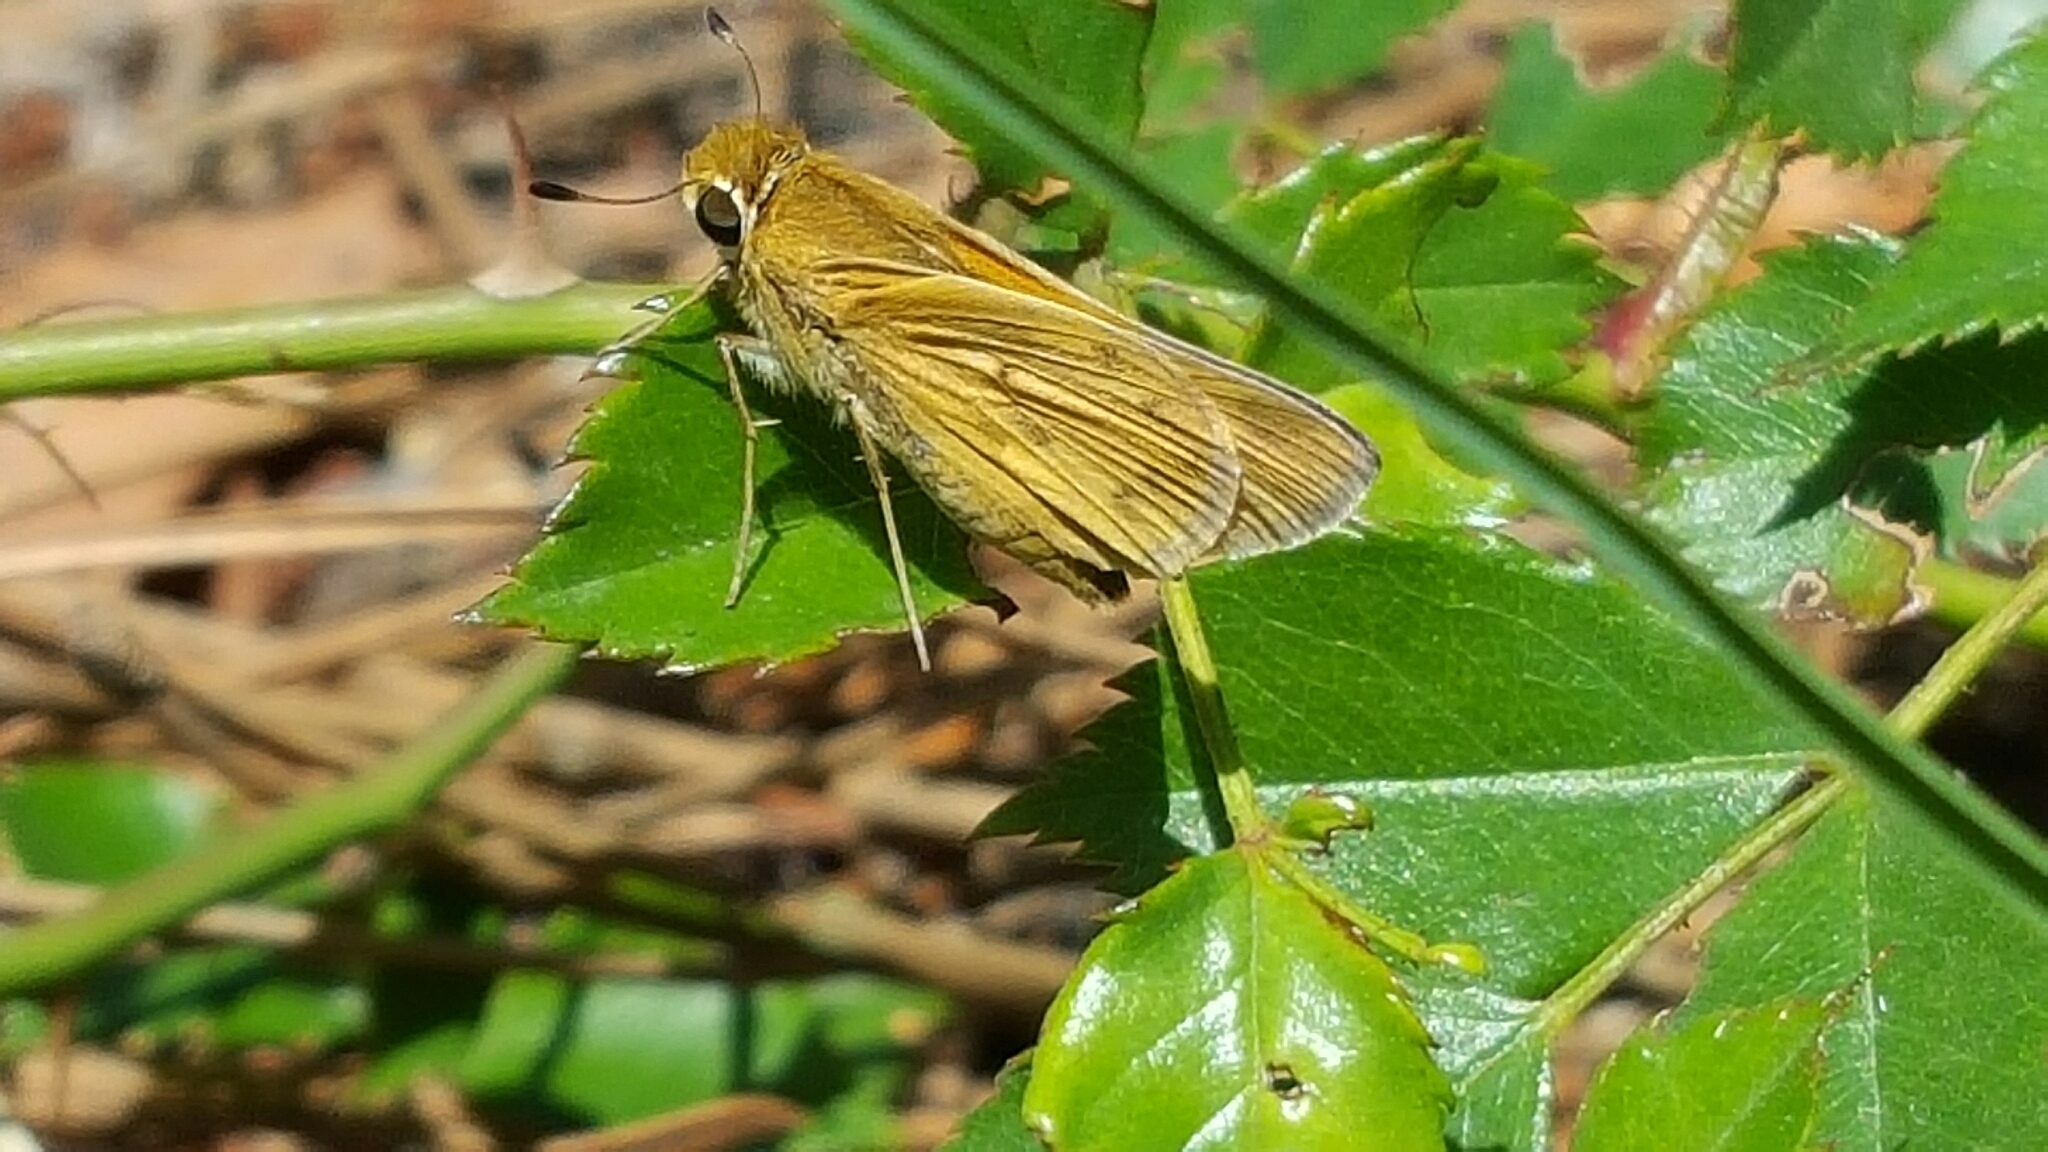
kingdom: Animalia
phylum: Arthropoda
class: Insecta
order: Lepidoptera
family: Hesperiidae
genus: Hylephila
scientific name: Hylephila phyleus
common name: Fiery skipper
